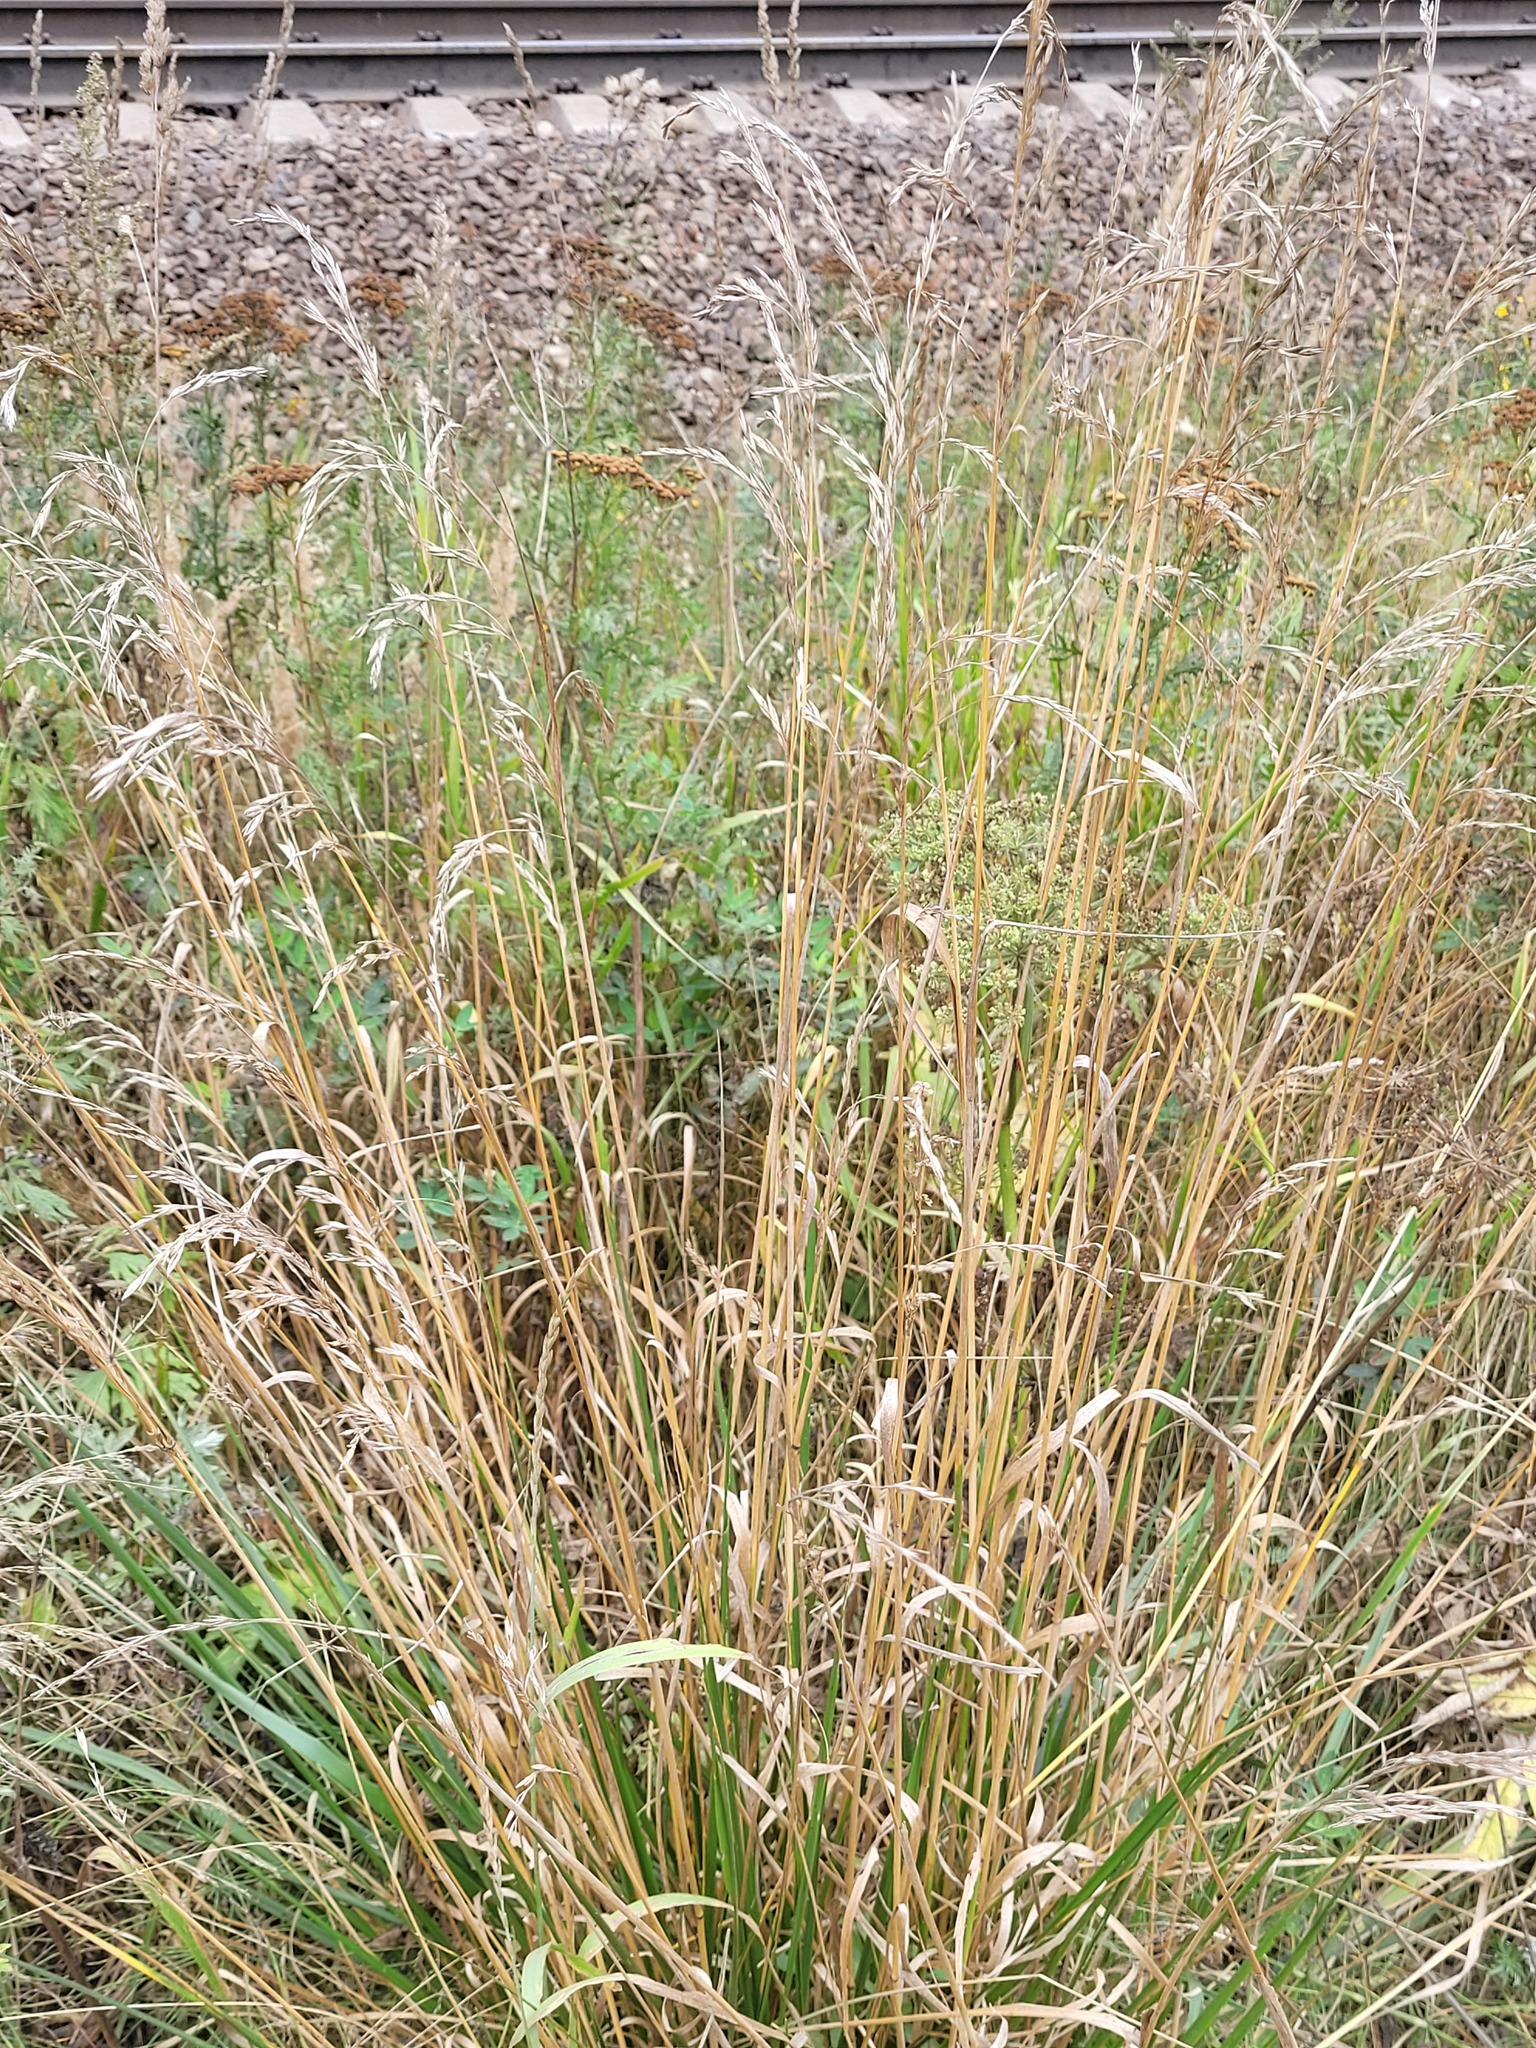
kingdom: Plantae
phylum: Tracheophyta
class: Liliopsida
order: Poales
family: Poaceae
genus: Lolium
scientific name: Lolium arundinaceum
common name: Reed fescue
